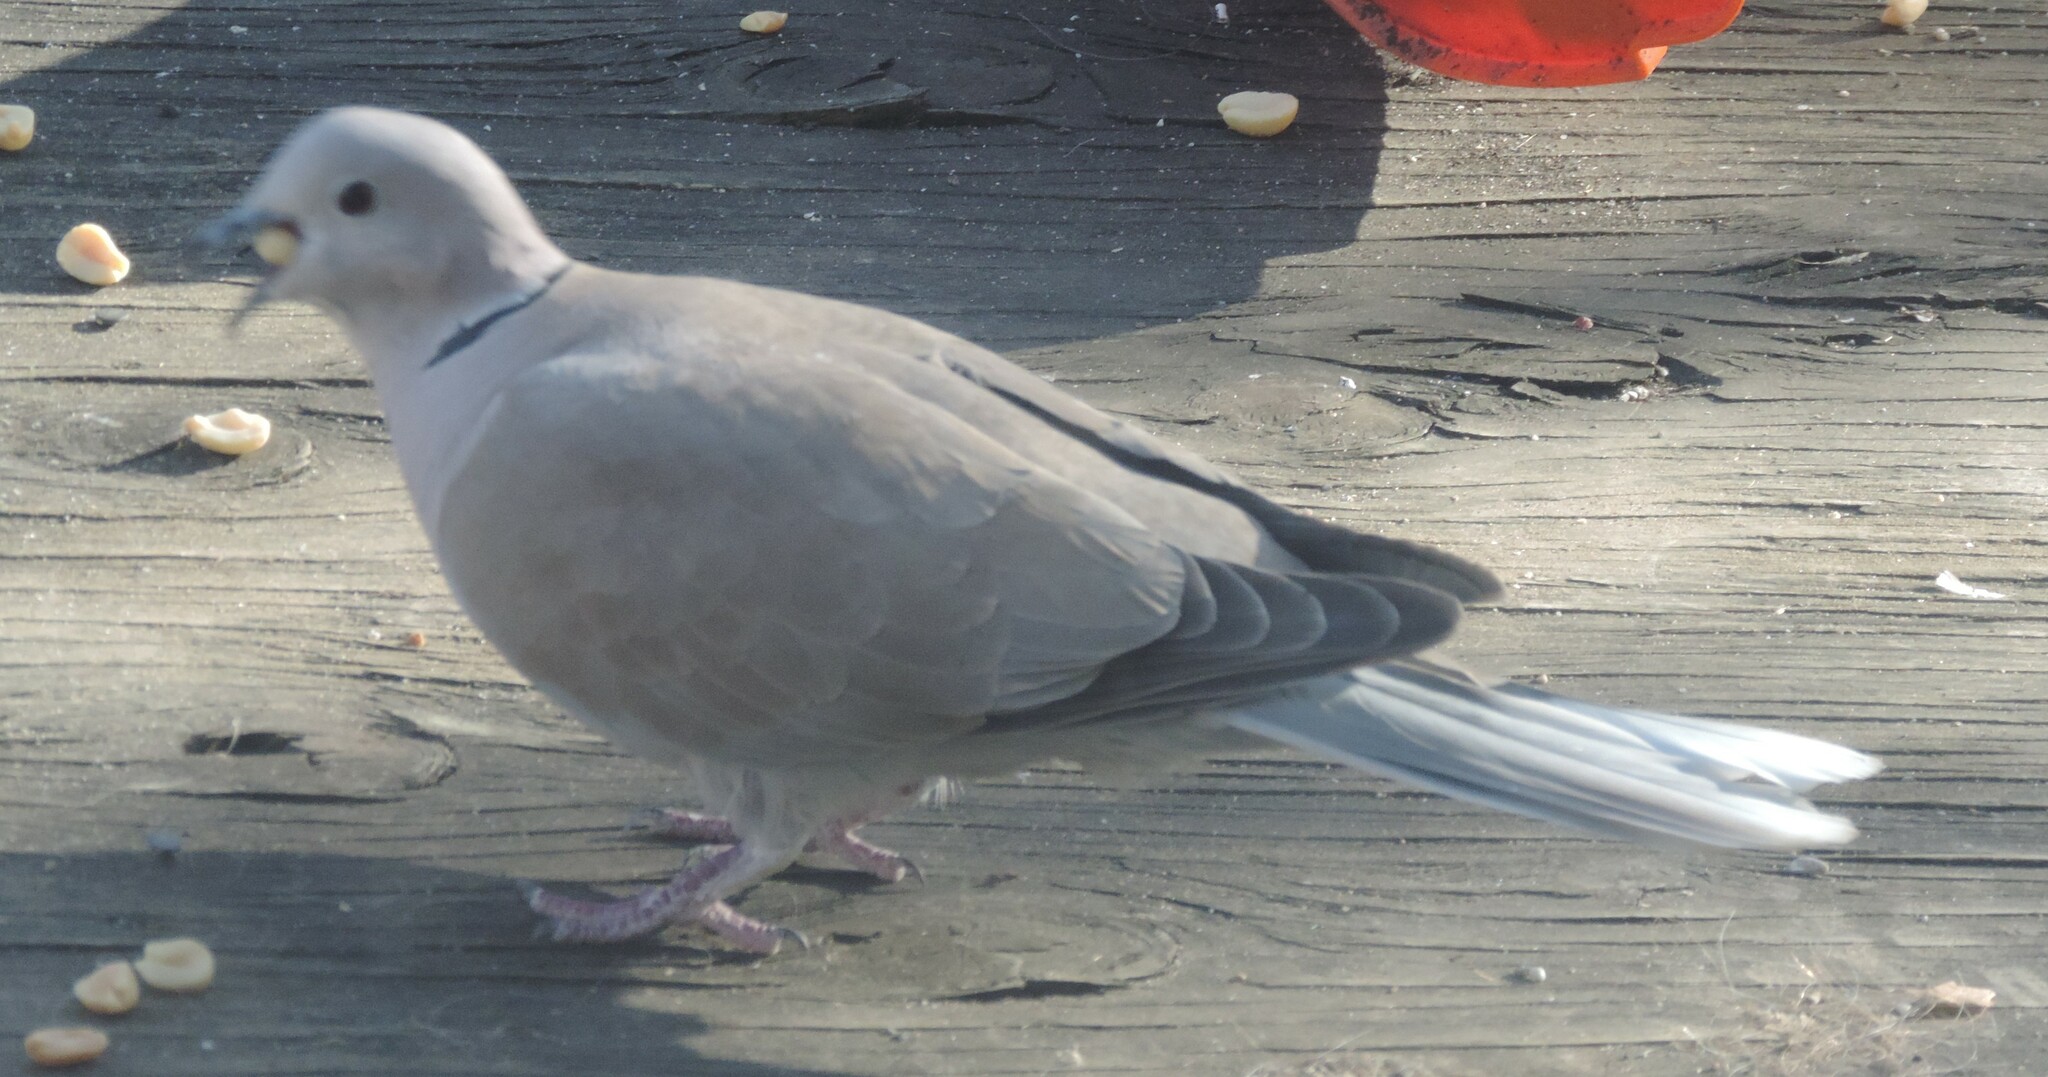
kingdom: Animalia
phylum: Chordata
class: Aves
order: Columbiformes
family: Columbidae
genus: Streptopelia
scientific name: Streptopelia decaocto
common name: Eurasian collared dove
